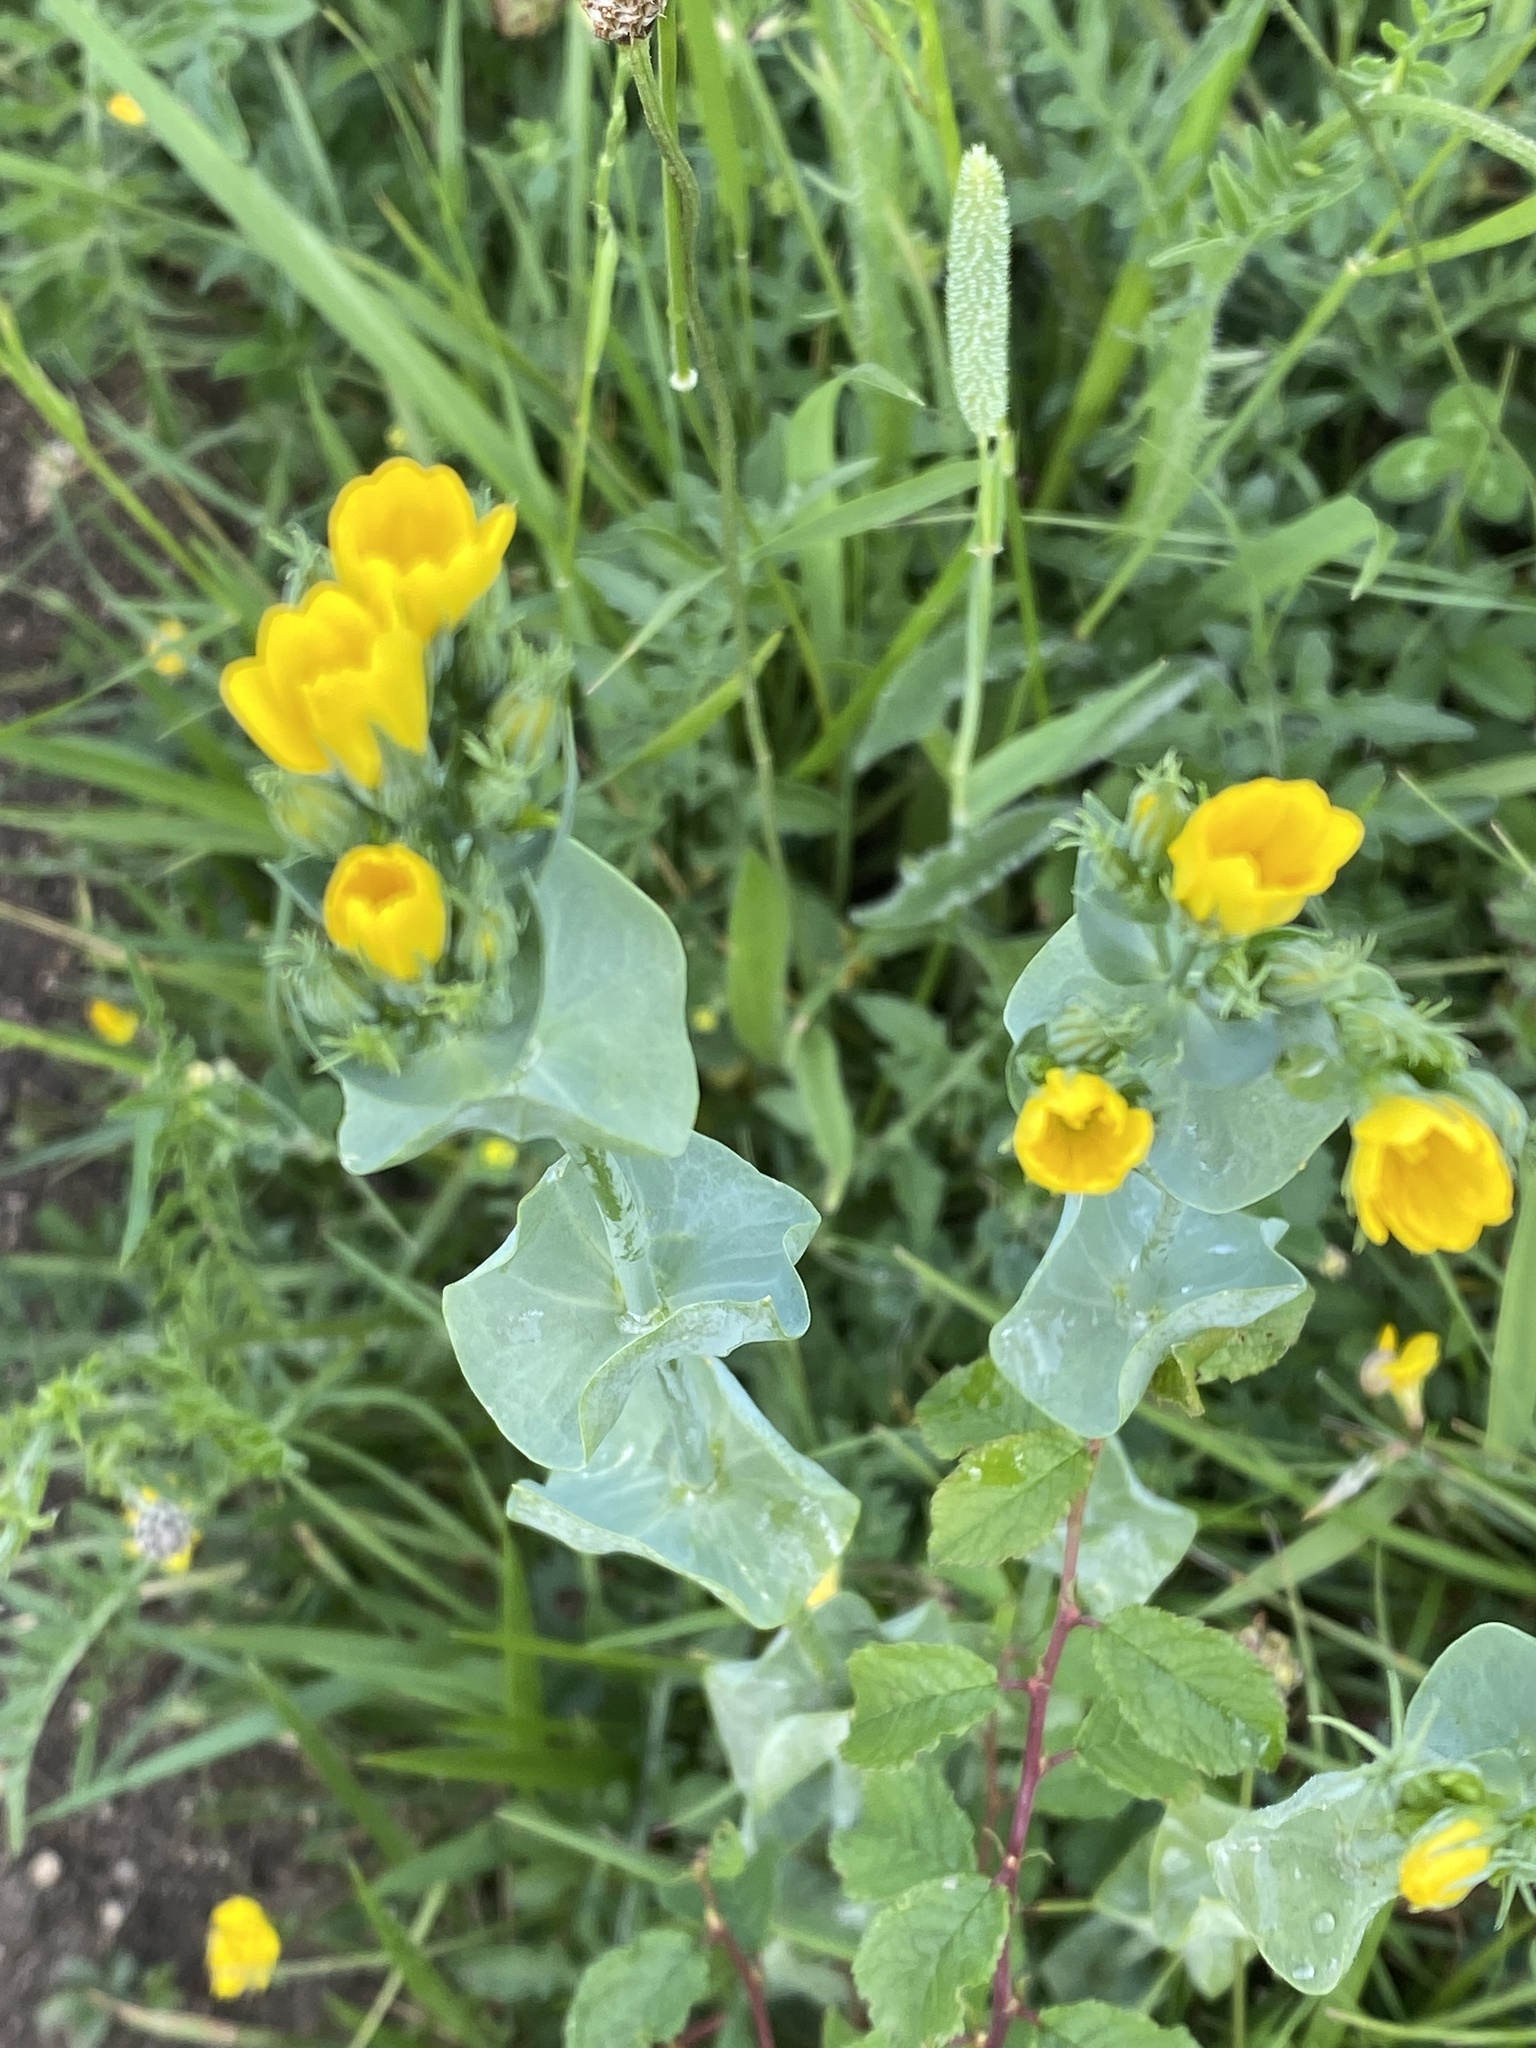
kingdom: Plantae
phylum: Tracheophyta
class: Magnoliopsida
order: Gentianales
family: Gentianaceae
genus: Blackstonia
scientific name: Blackstonia perfoliata
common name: Yellow-wort
